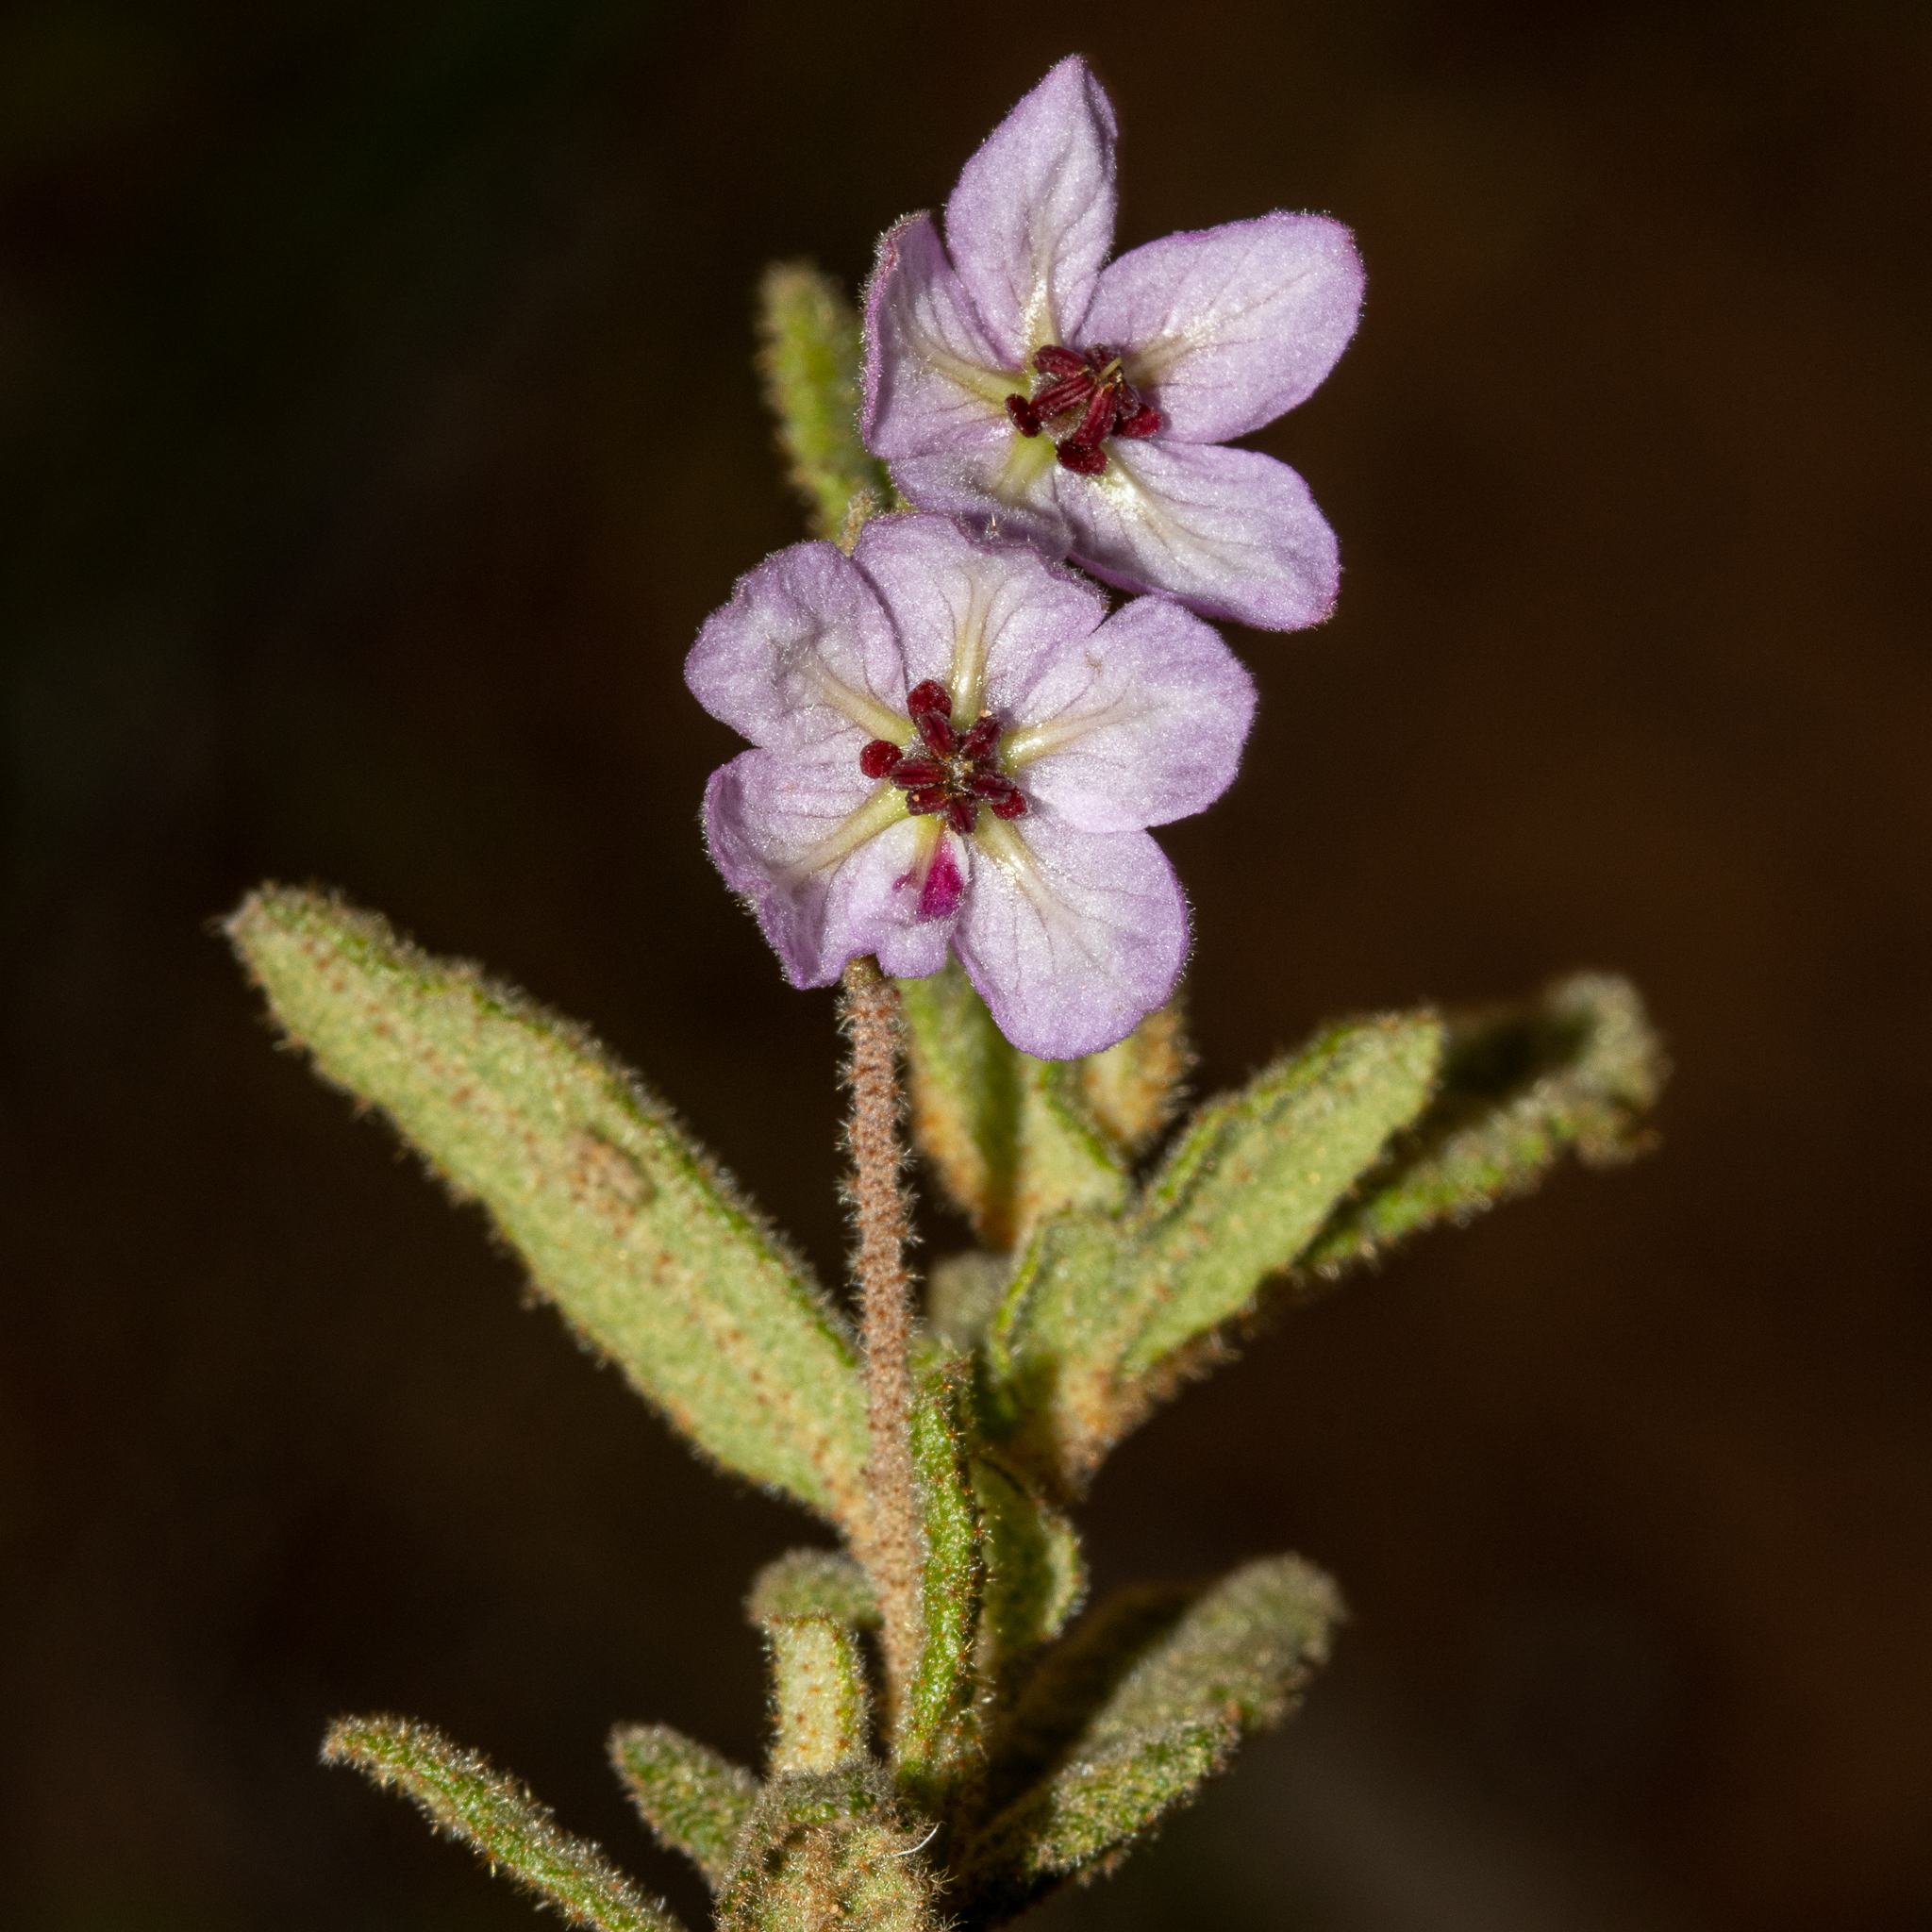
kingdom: Plantae
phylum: Tracheophyta
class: Magnoliopsida
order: Malvales
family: Malvaceae
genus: Thomasia
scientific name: Thomasia petalocalyx
